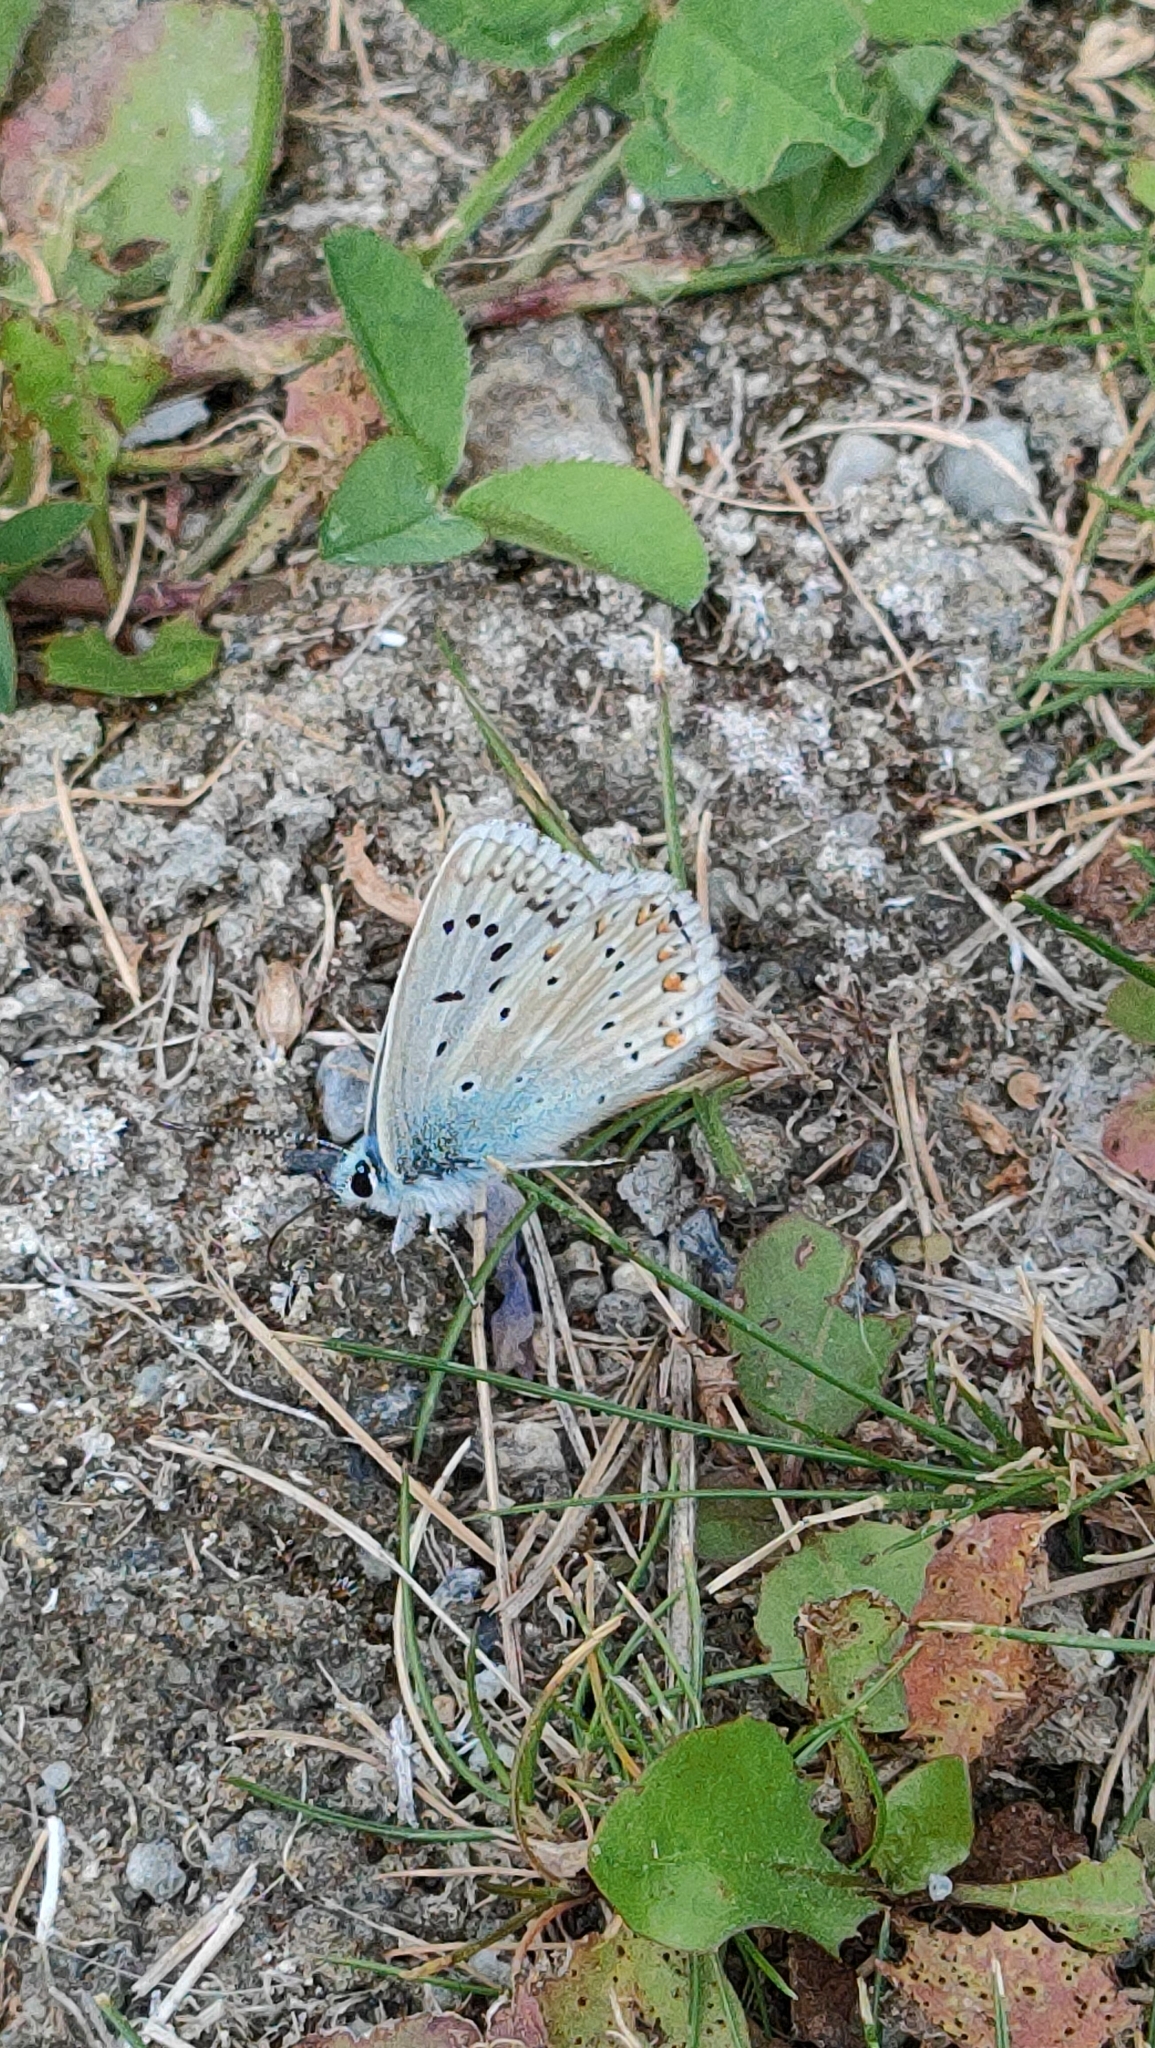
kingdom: Animalia
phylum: Arthropoda
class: Insecta
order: Lepidoptera
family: Lycaenidae
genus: Lysandra
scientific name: Lysandra coridon
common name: Chalkhill blue
